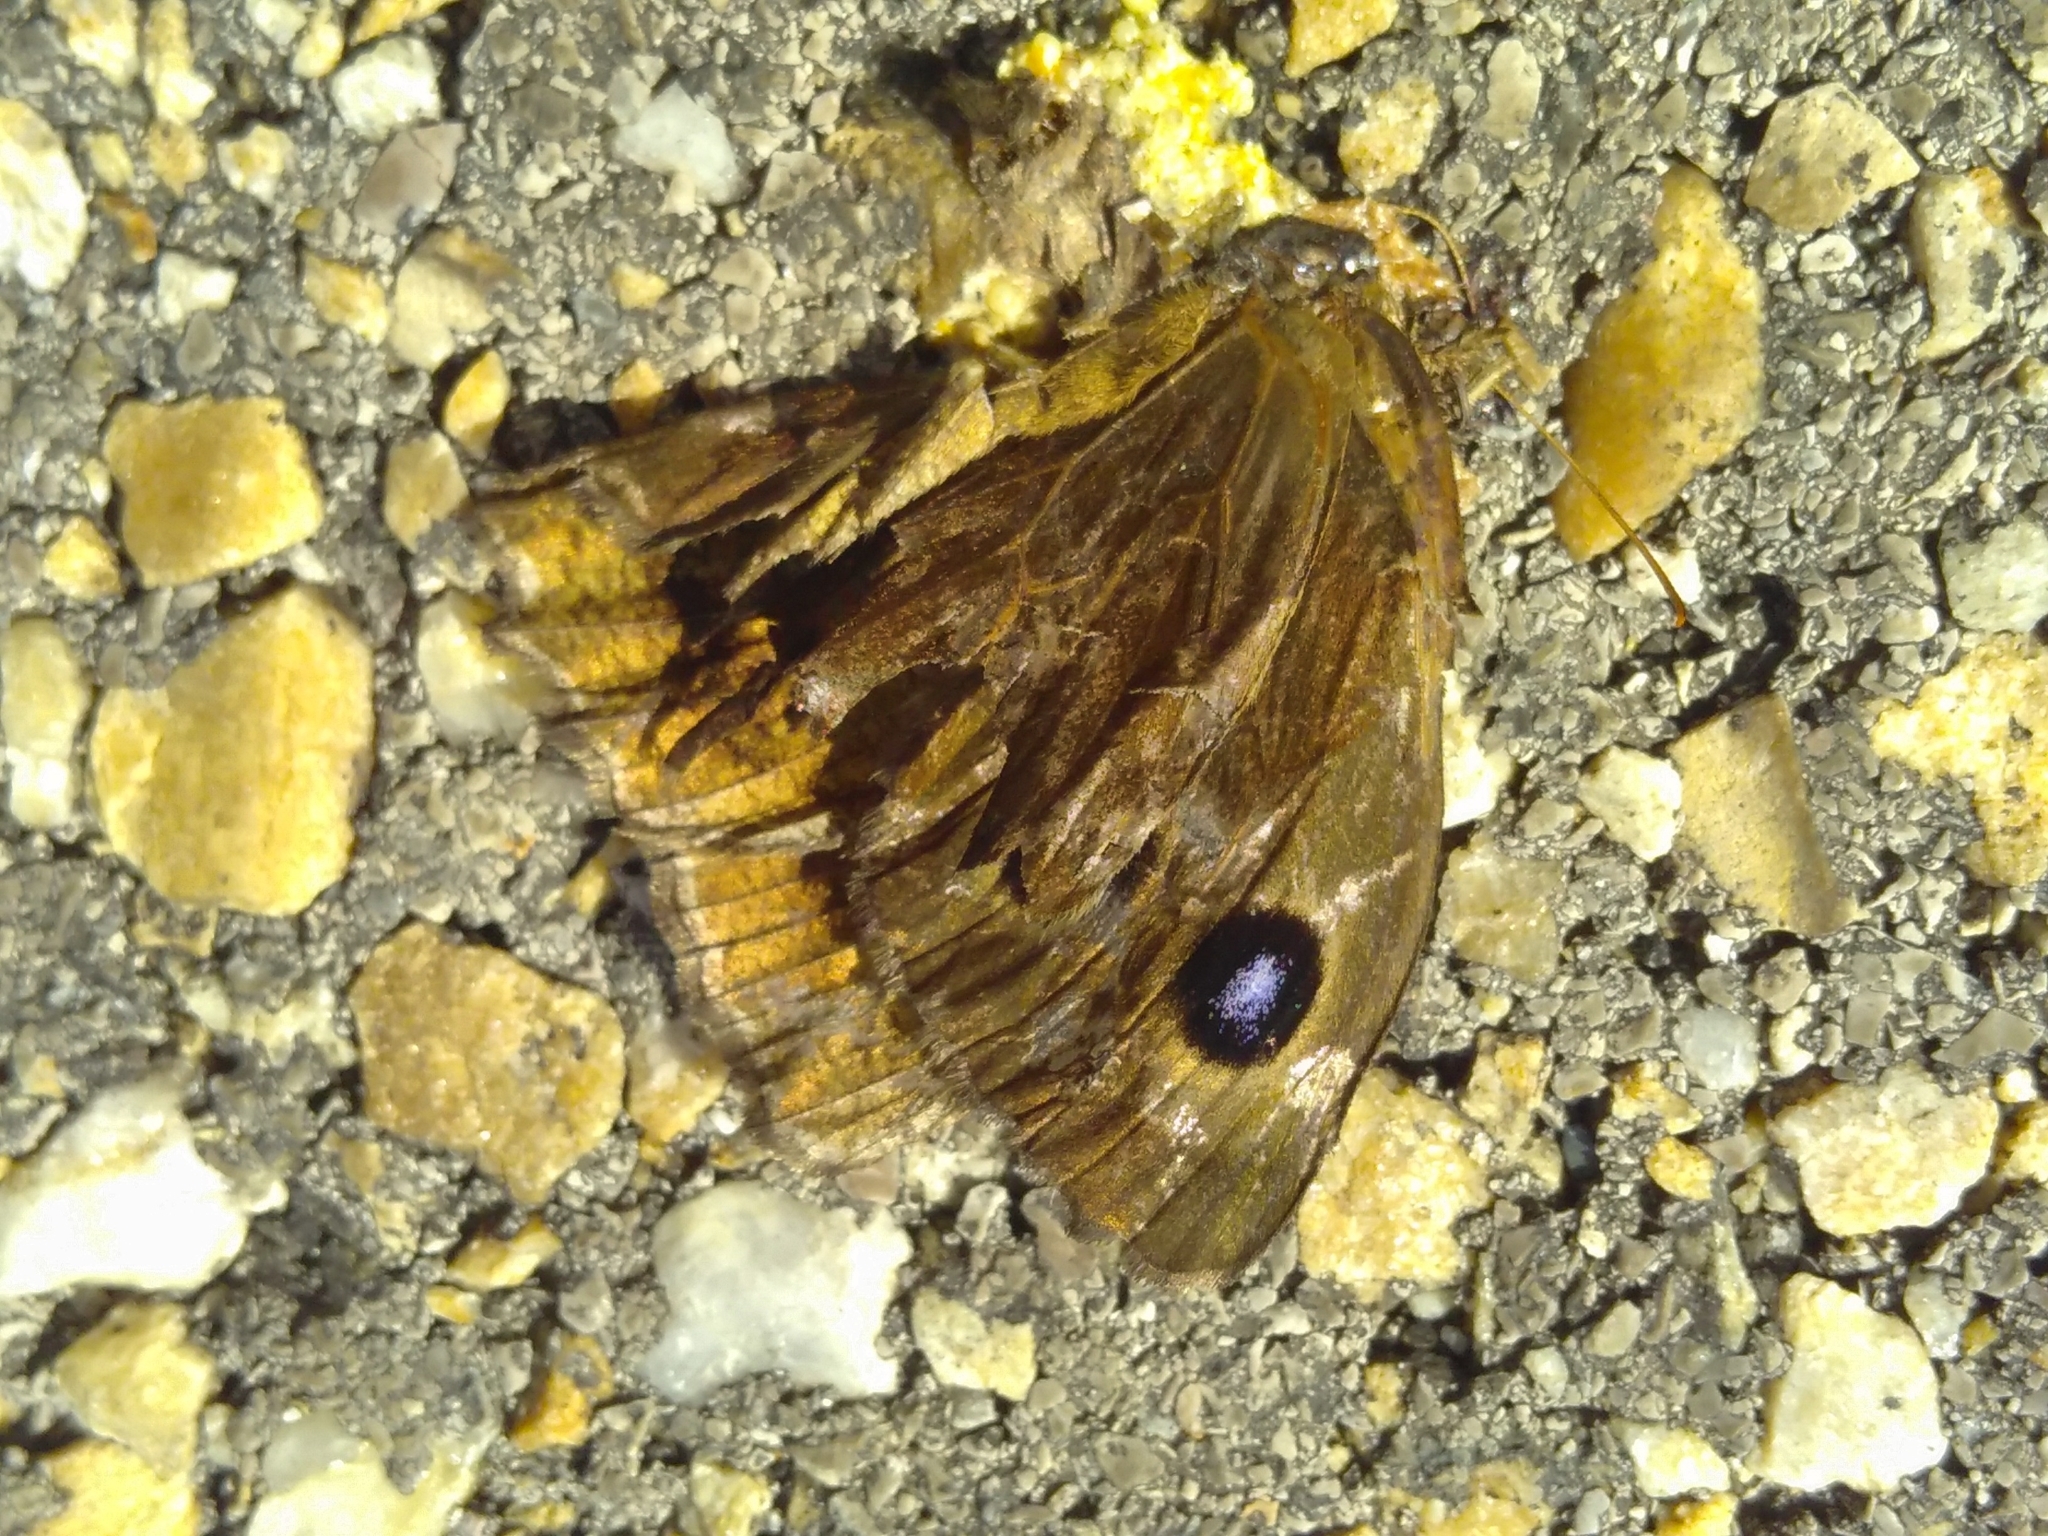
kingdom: Animalia
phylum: Arthropoda
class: Insecta
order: Lepidoptera
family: Nymphalidae
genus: Minois
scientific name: Minois dryas
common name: Dryad
